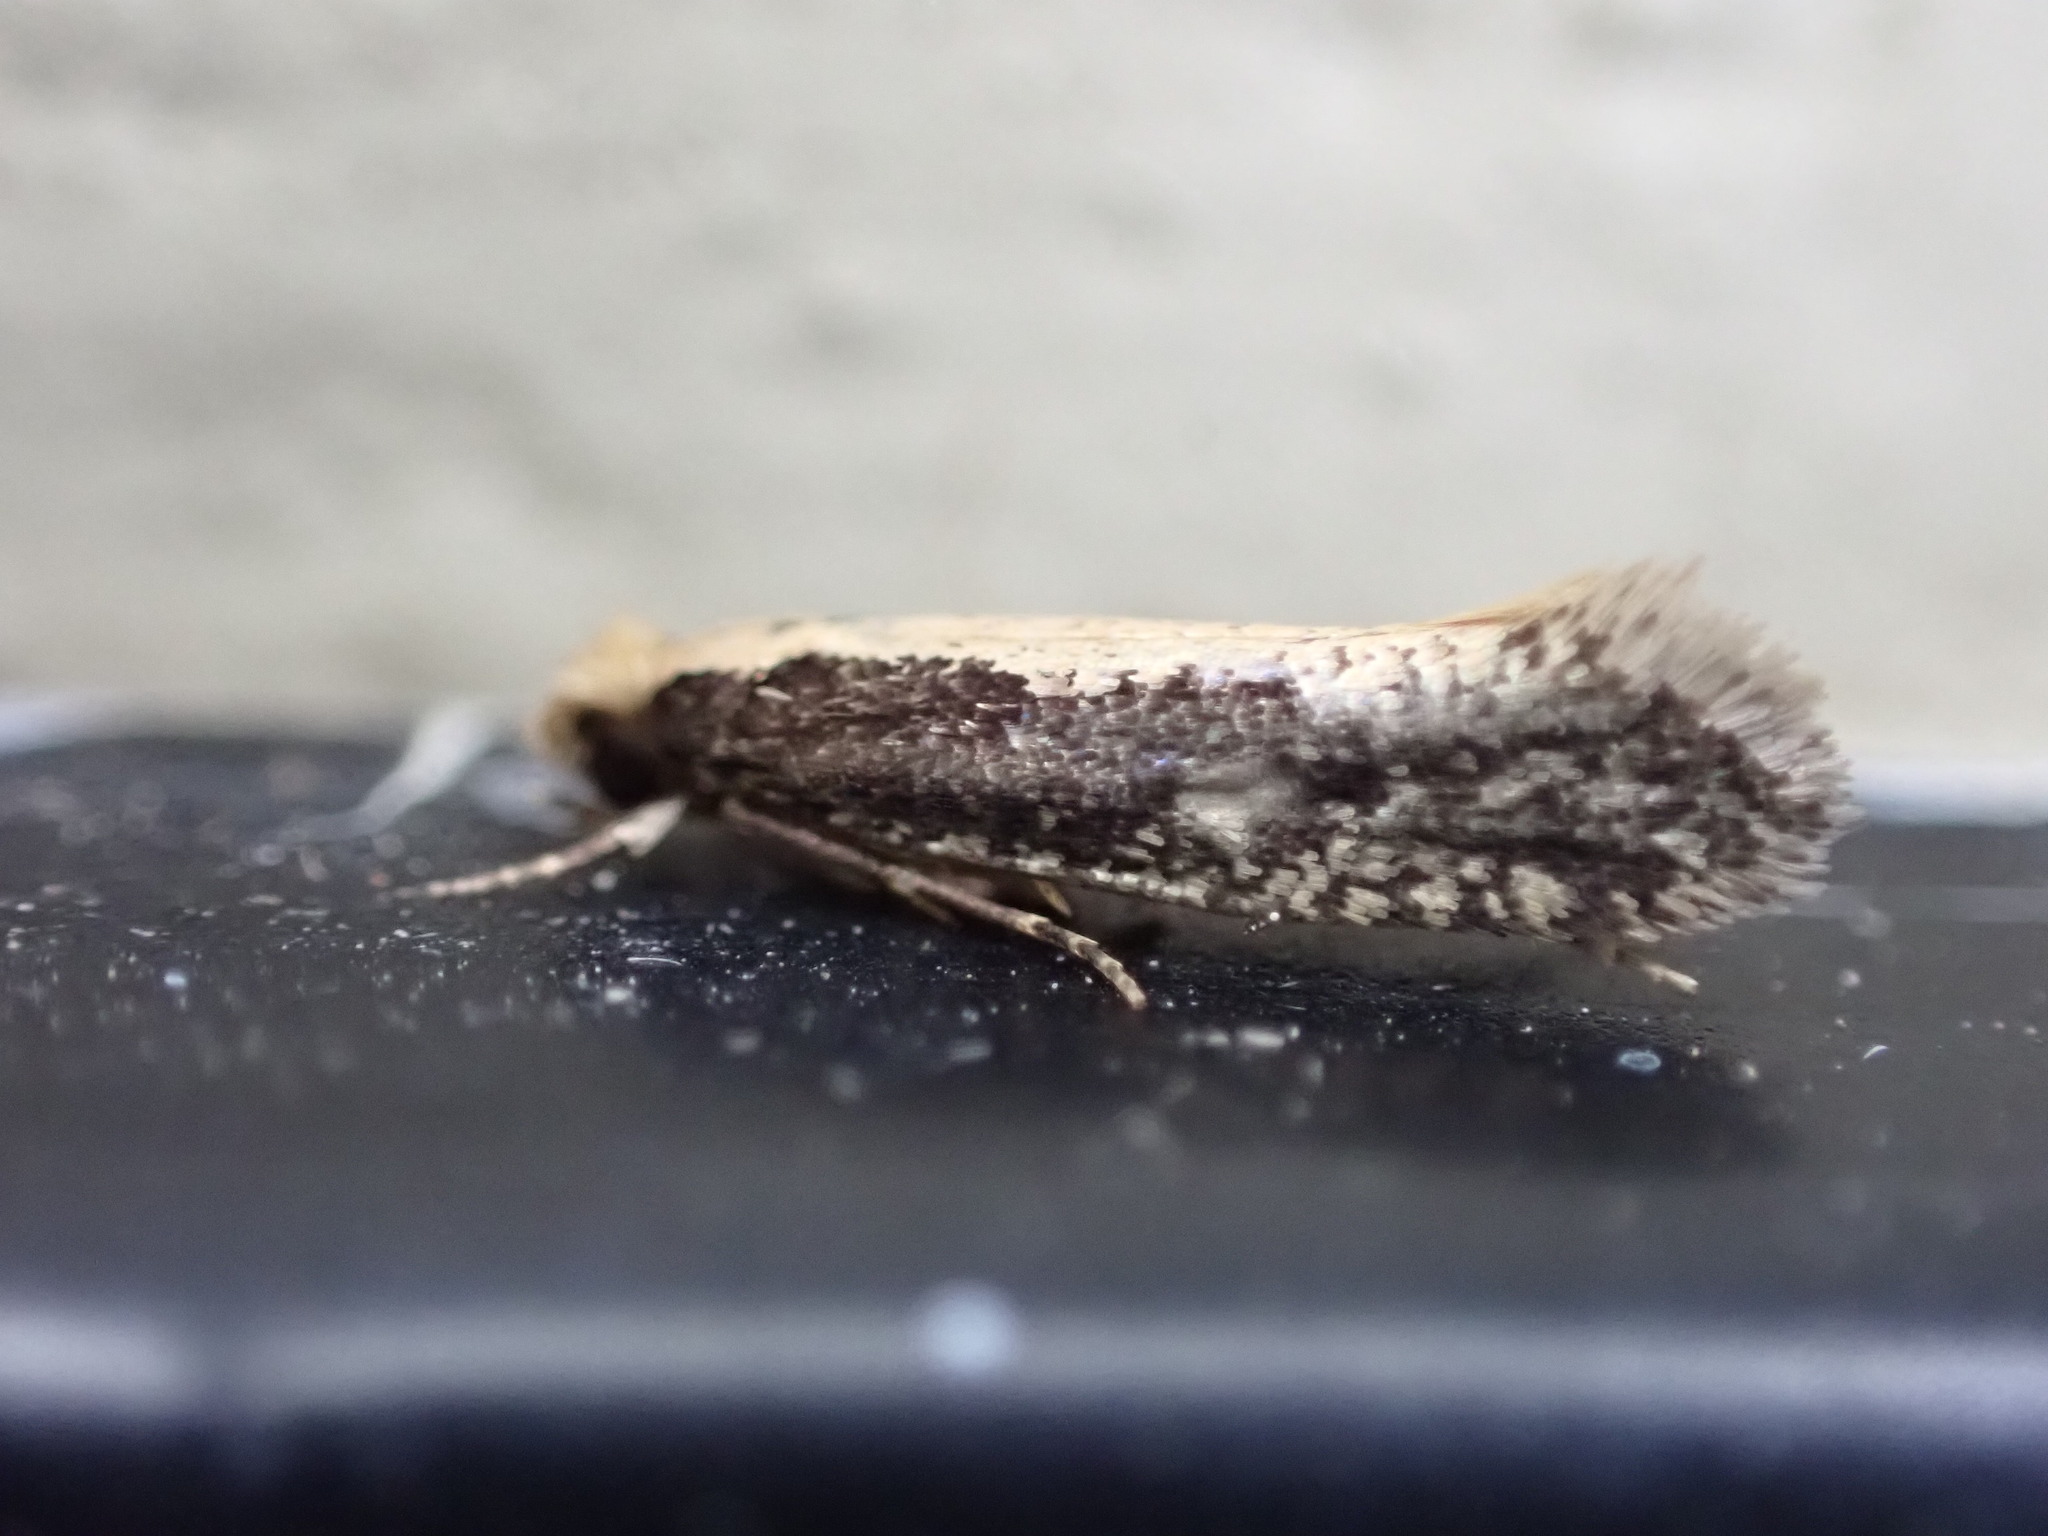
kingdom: Animalia
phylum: Arthropoda
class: Insecta
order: Lepidoptera
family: Tineidae
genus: Monopis
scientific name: Monopis ethelella
